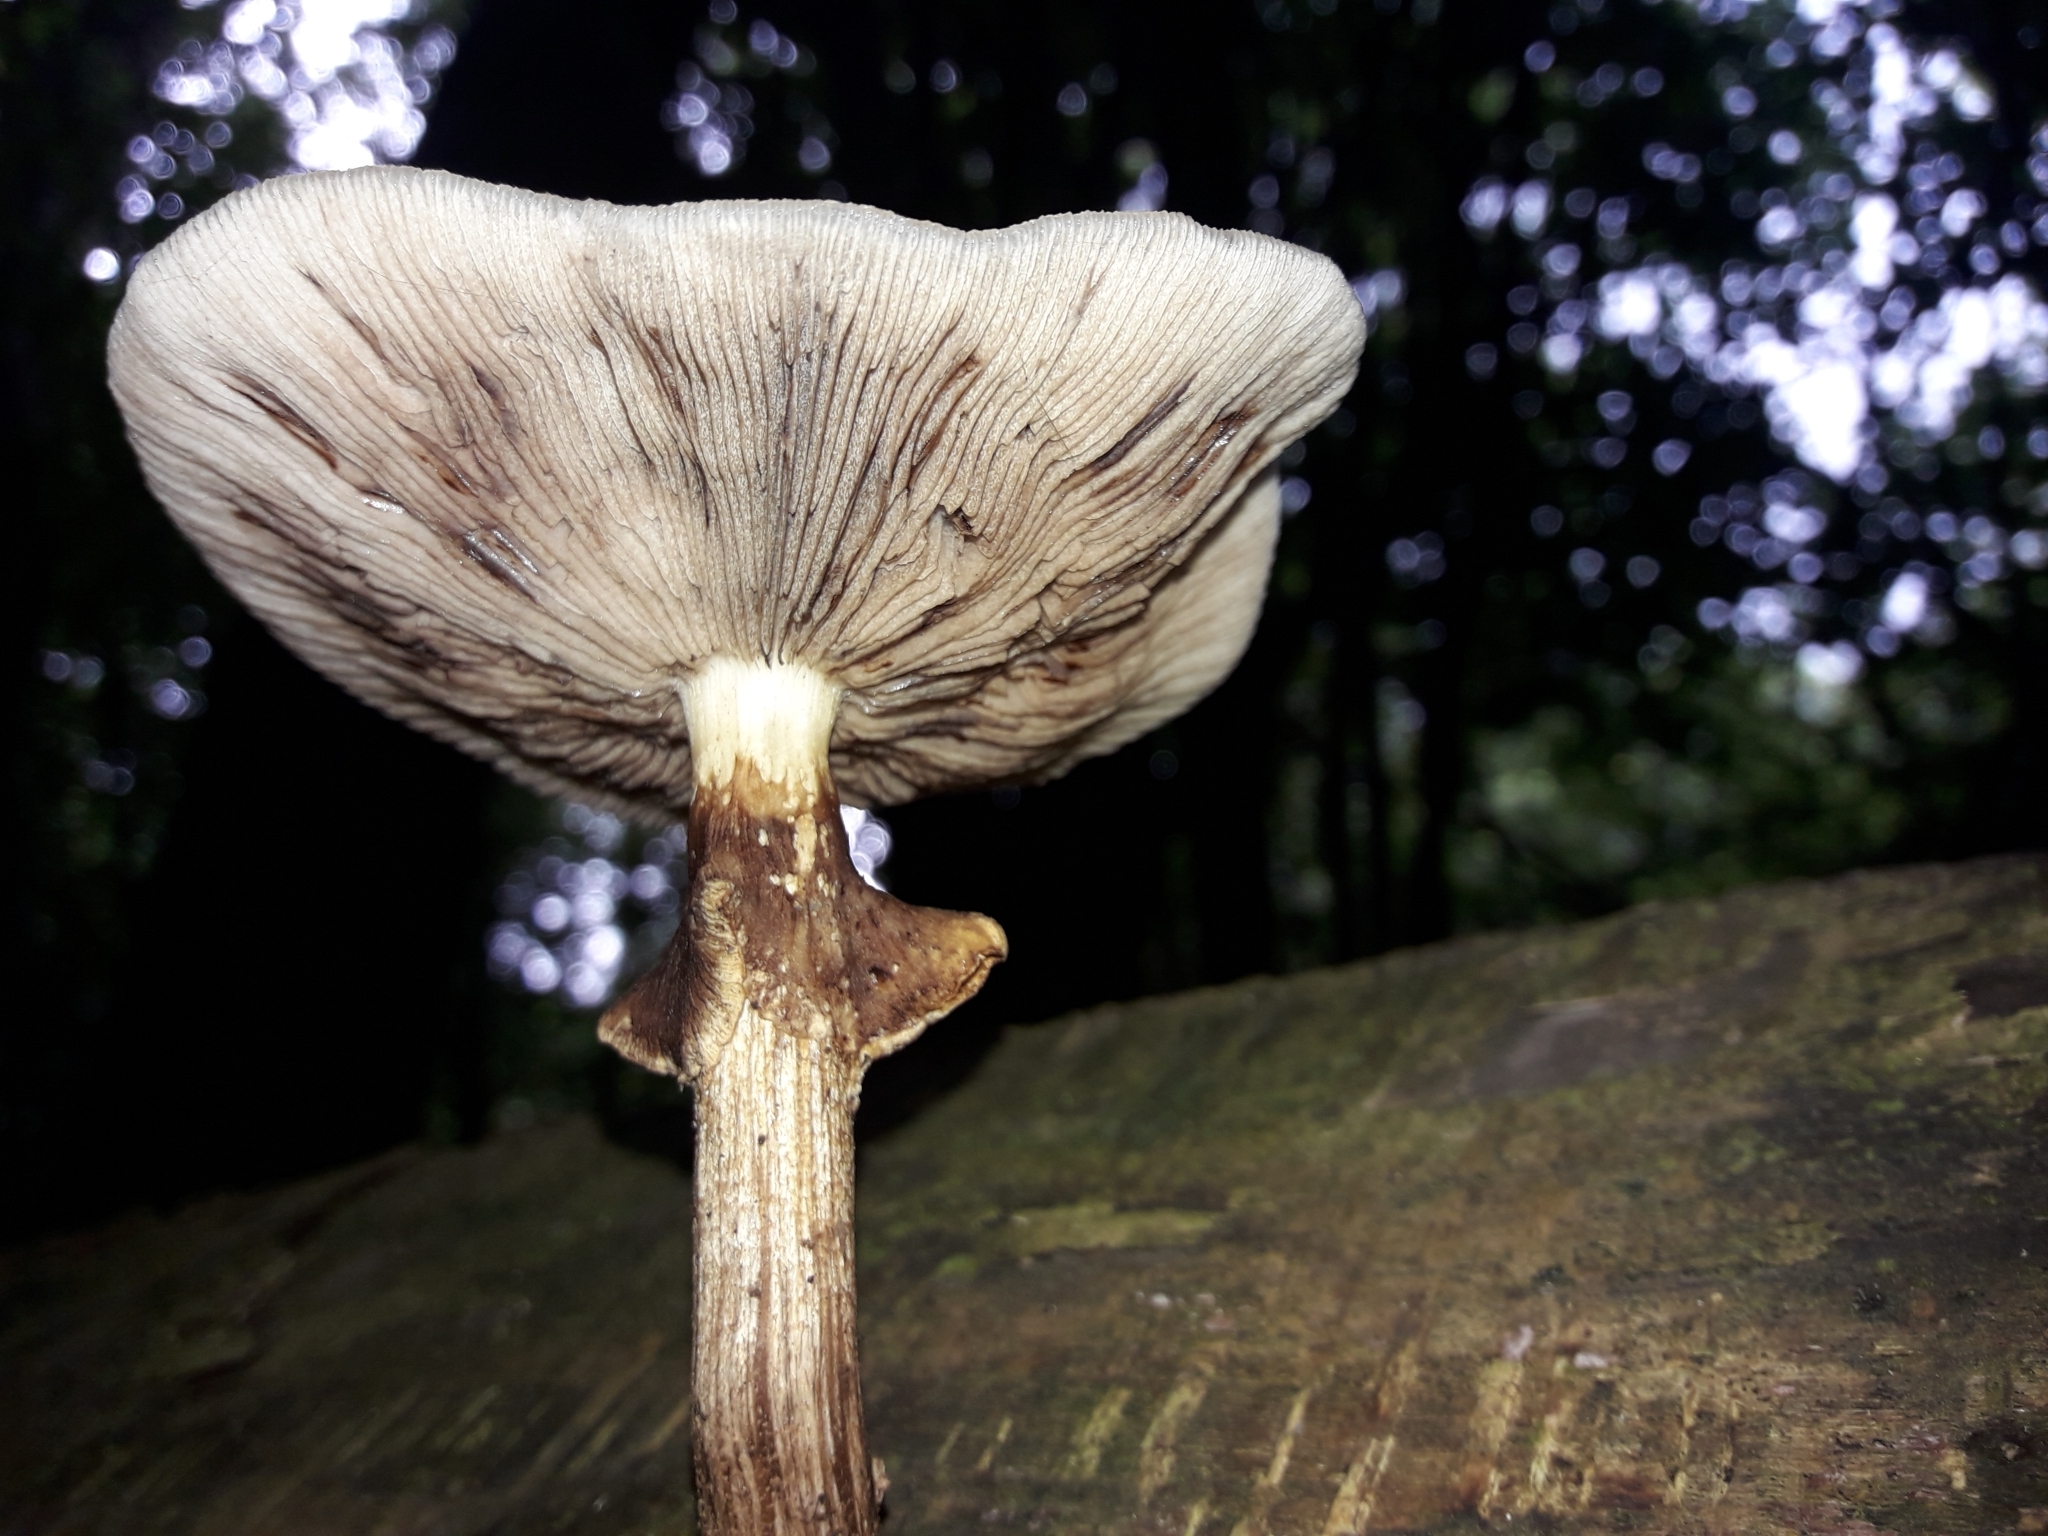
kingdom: Fungi
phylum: Basidiomycota
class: Agaricomycetes
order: Agaricales
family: Tubariaceae
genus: Cyclocybe
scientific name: Cyclocybe parasitica
